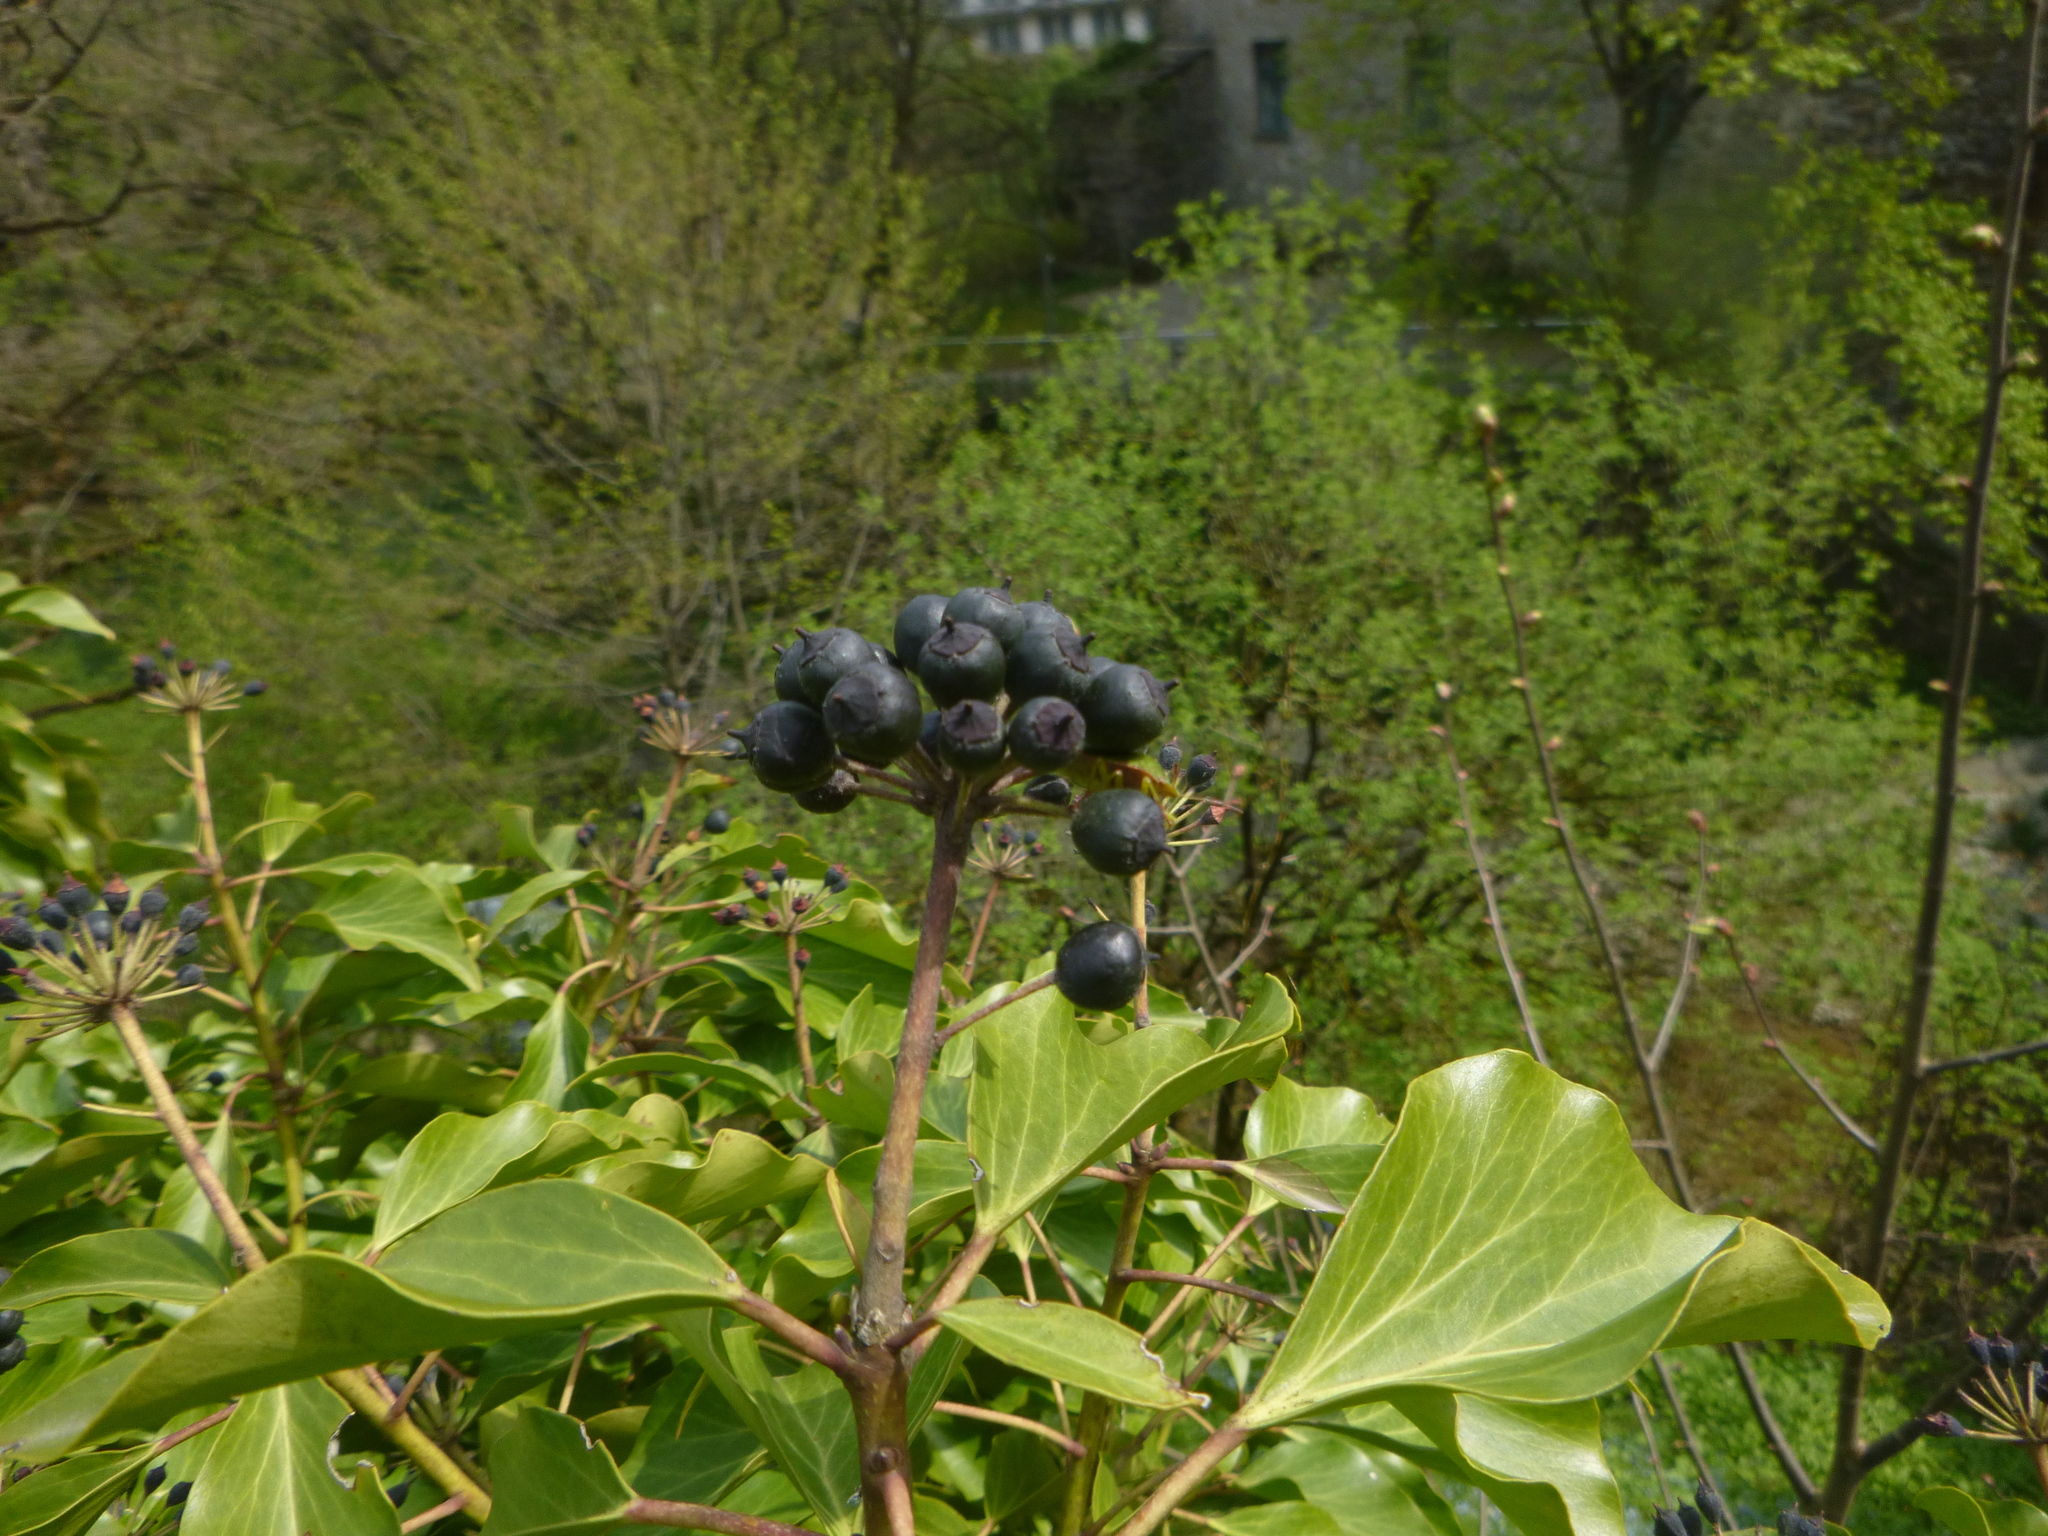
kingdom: Plantae
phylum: Tracheophyta
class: Magnoliopsida
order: Apiales
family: Araliaceae
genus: Hedera
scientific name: Hedera helix
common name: Ivy
